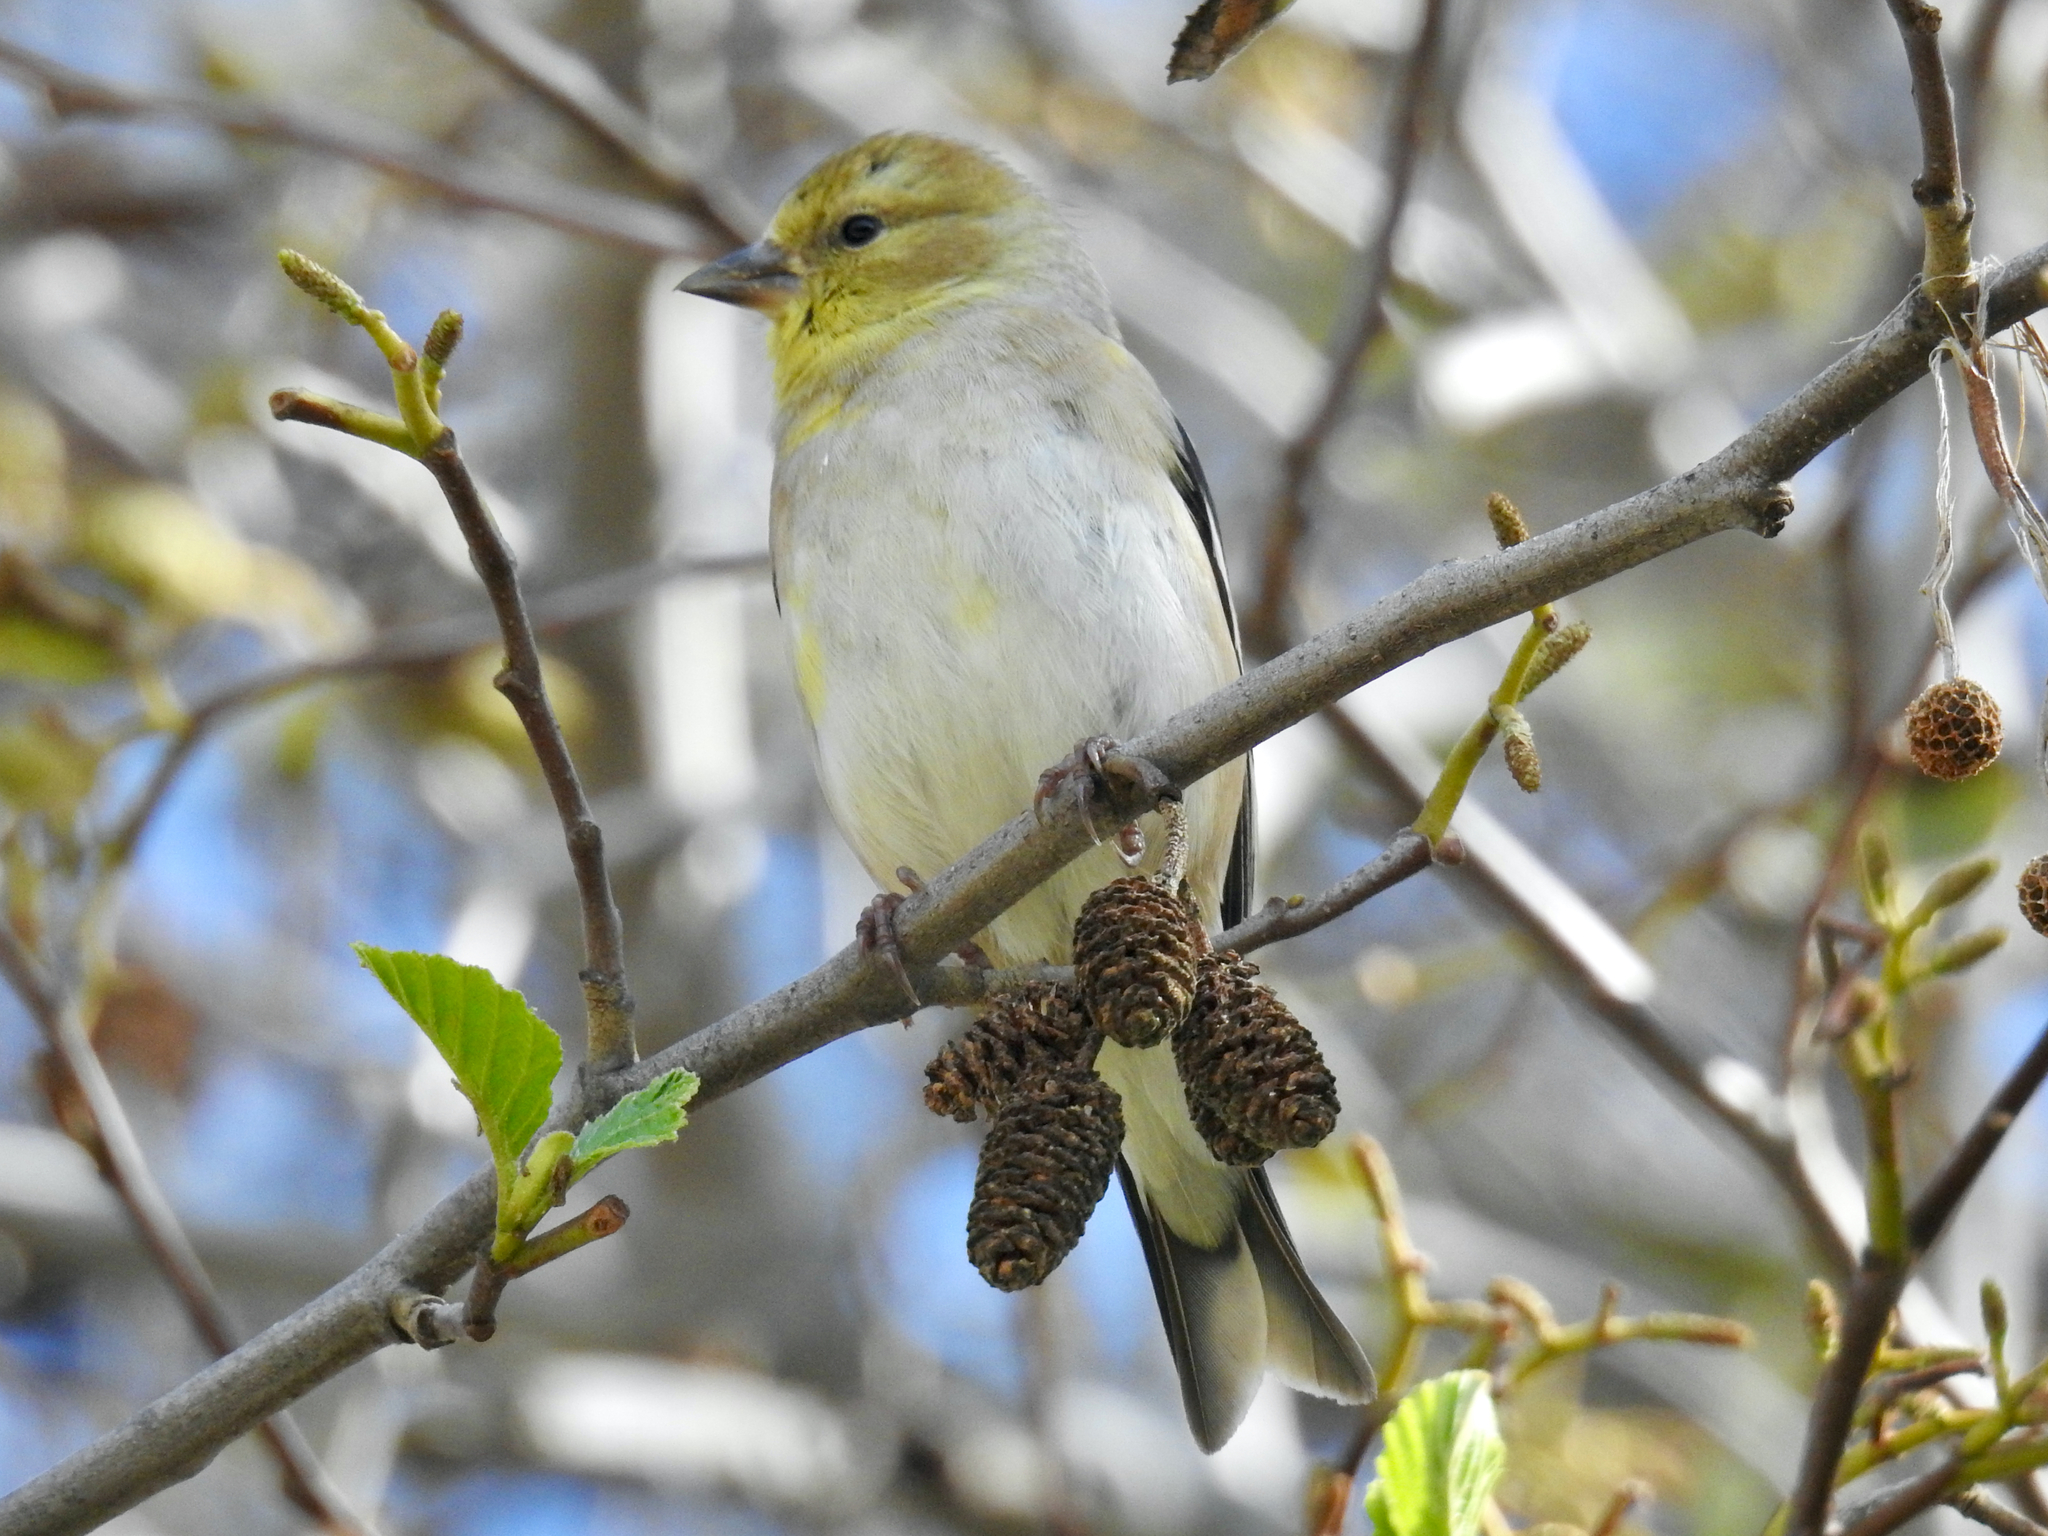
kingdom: Animalia
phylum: Chordata
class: Aves
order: Passeriformes
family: Fringillidae
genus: Spinus
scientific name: Spinus tristis
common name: American goldfinch
